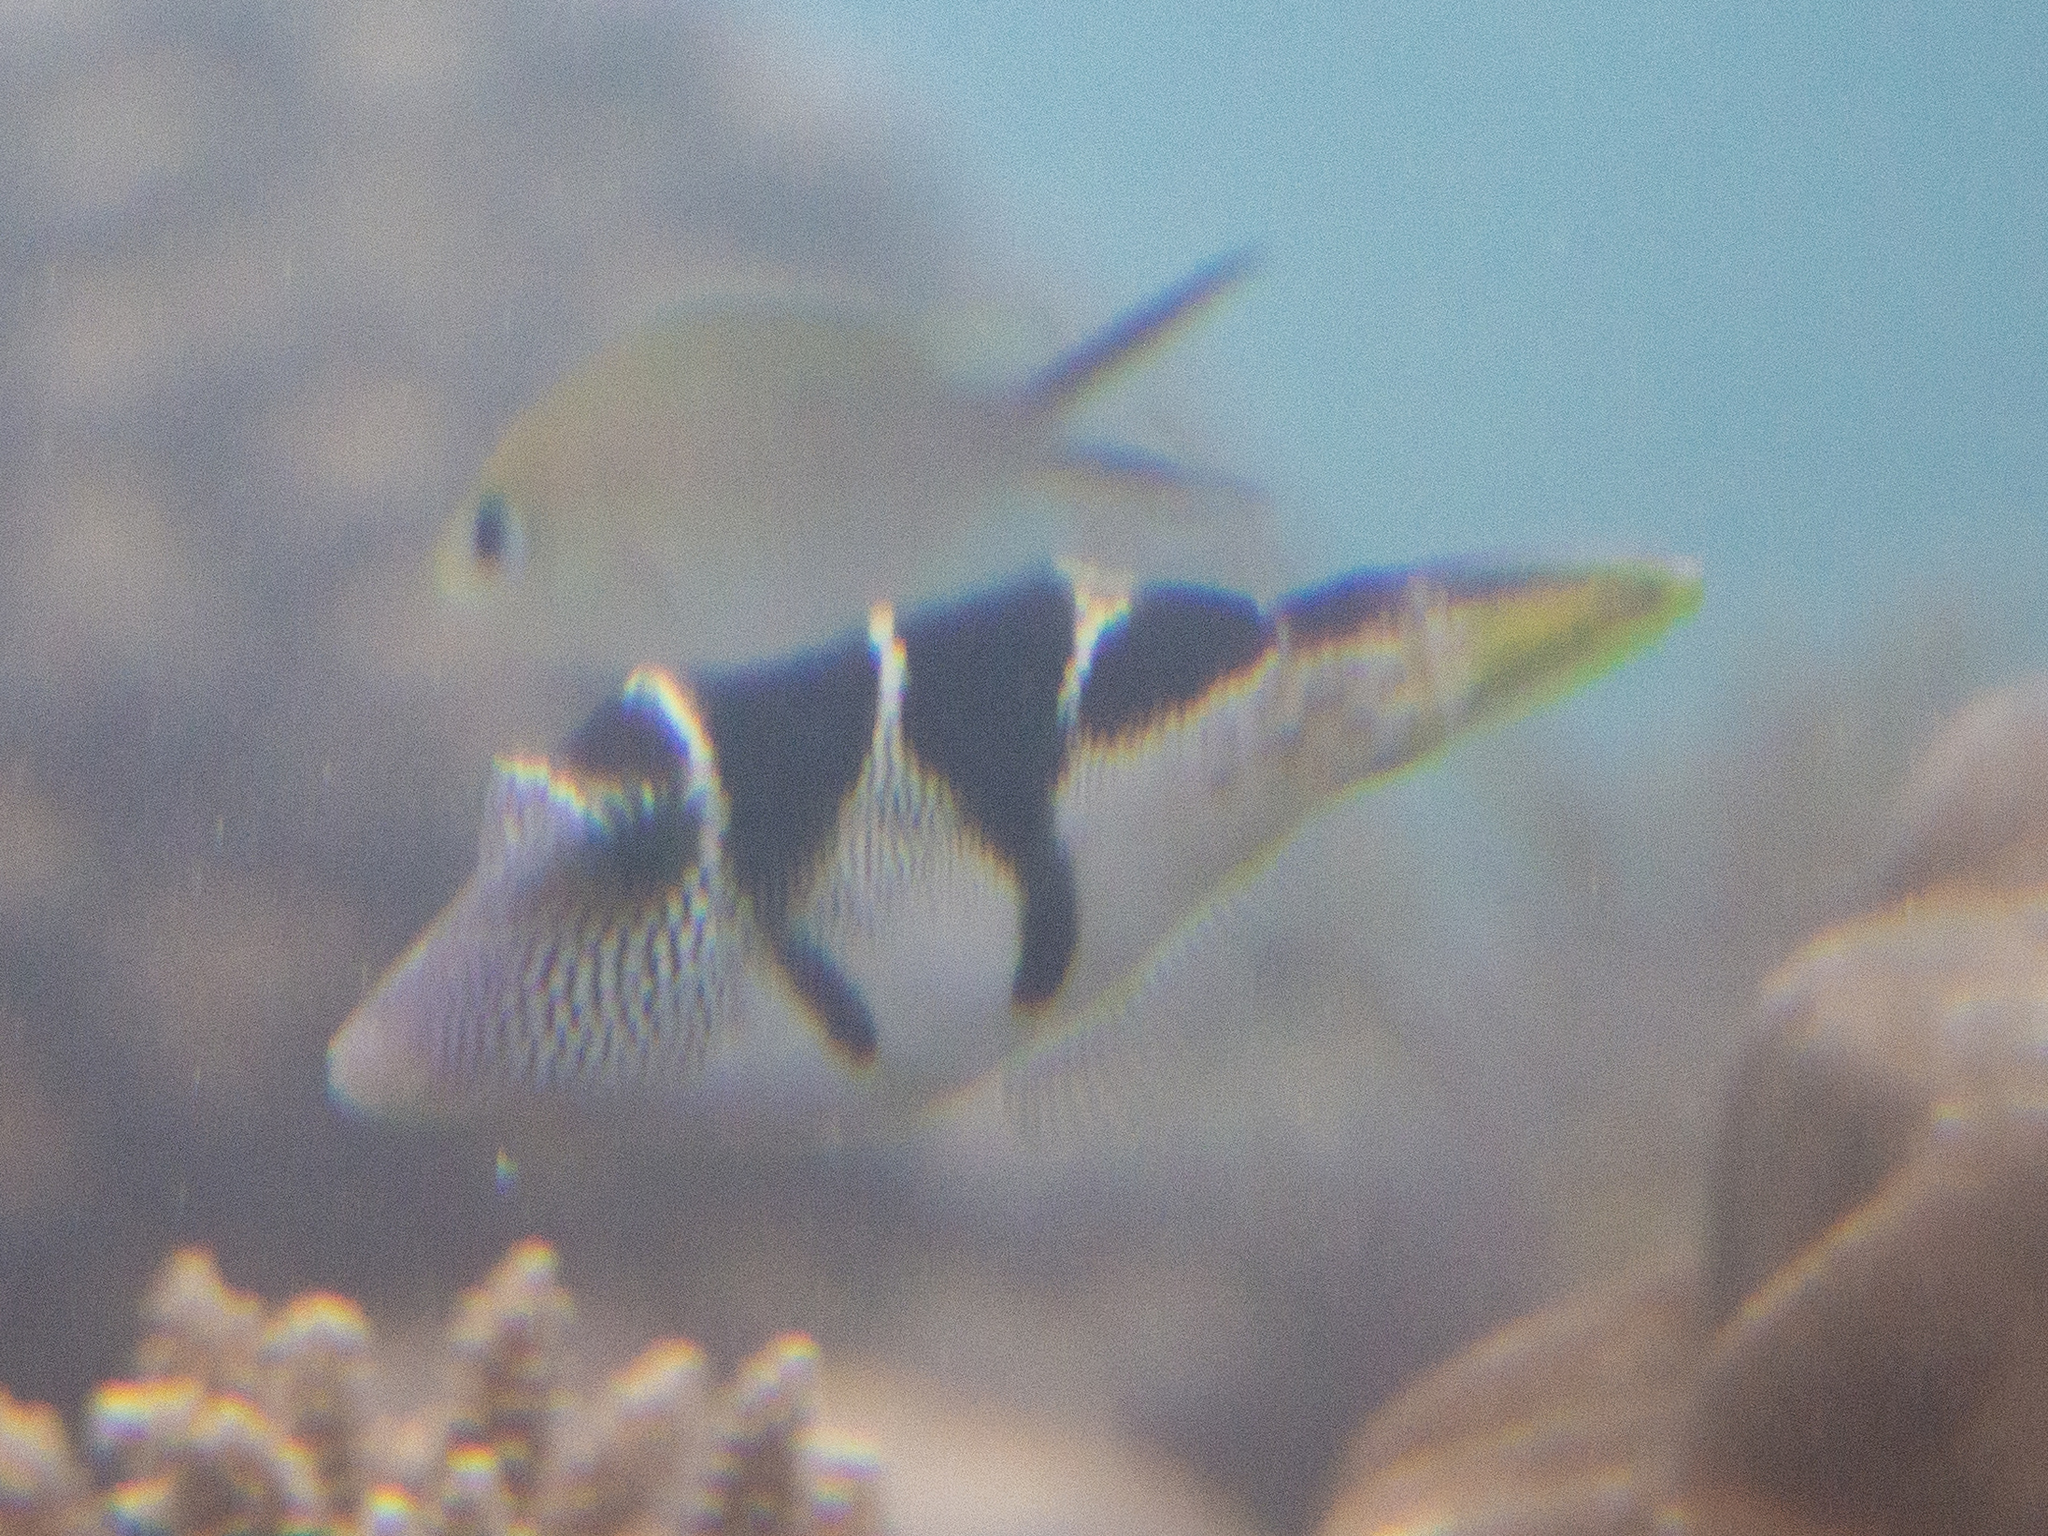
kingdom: Animalia
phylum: Chordata
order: Tetraodontiformes
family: Monacanthidae
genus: Paraluteres
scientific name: Paraluteres prionurus
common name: Black-saddled leatherjacket
